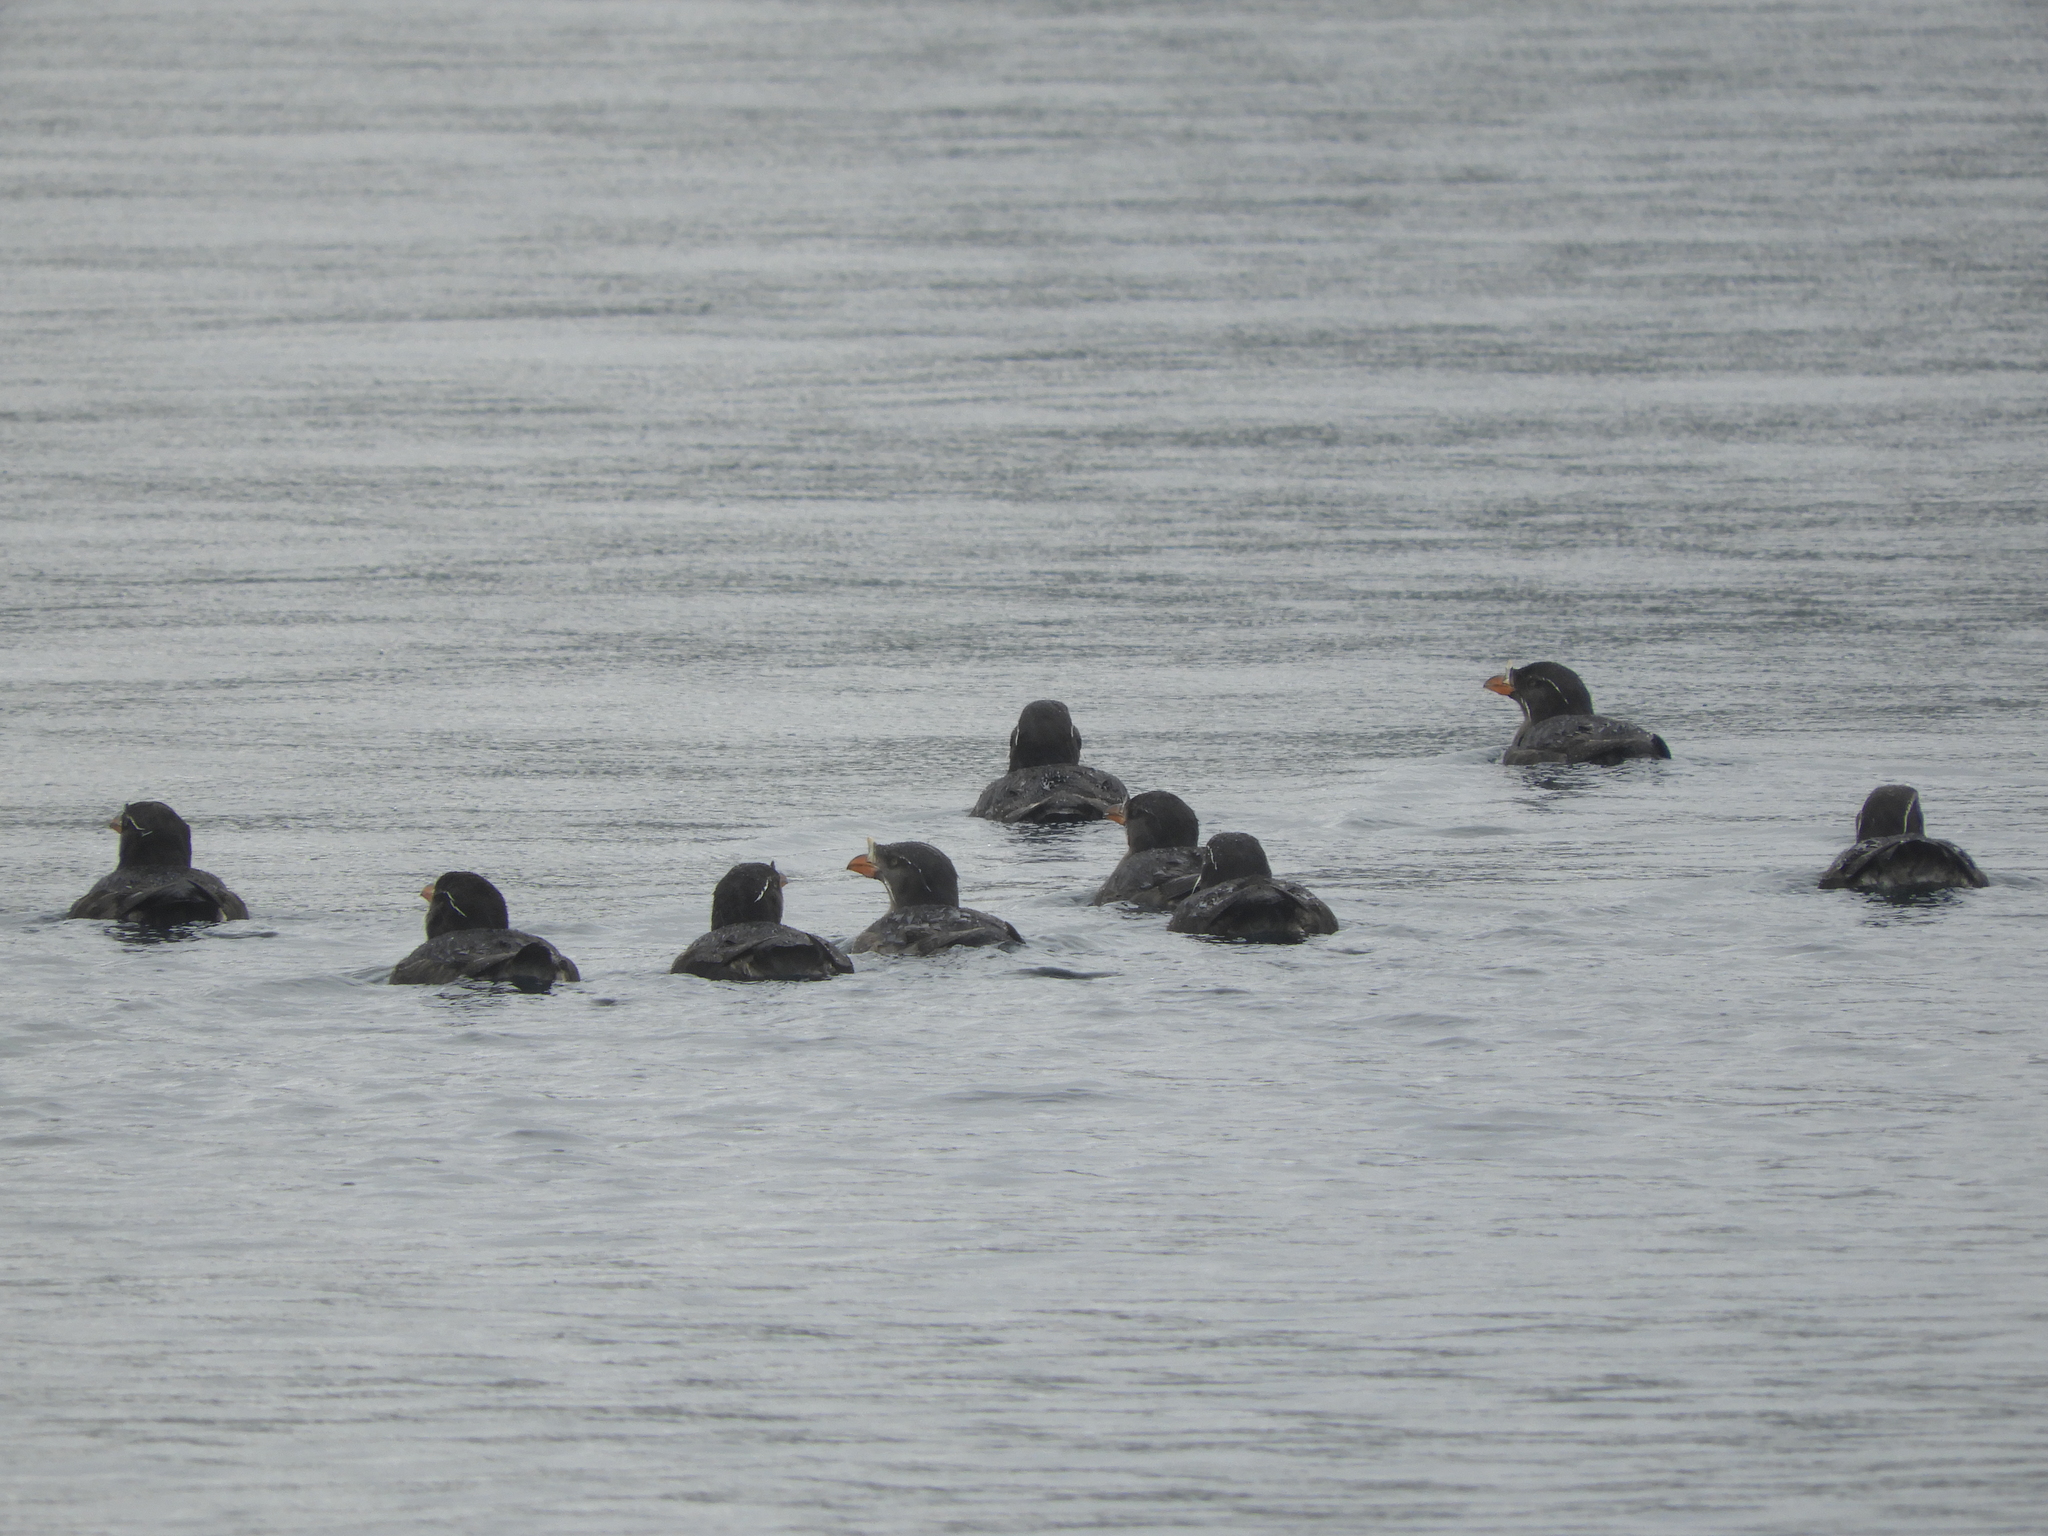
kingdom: Animalia
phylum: Chordata
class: Aves
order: Charadriiformes
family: Alcidae
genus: Cerorhinca
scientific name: Cerorhinca monocerata
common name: Rhinoceros auklet
